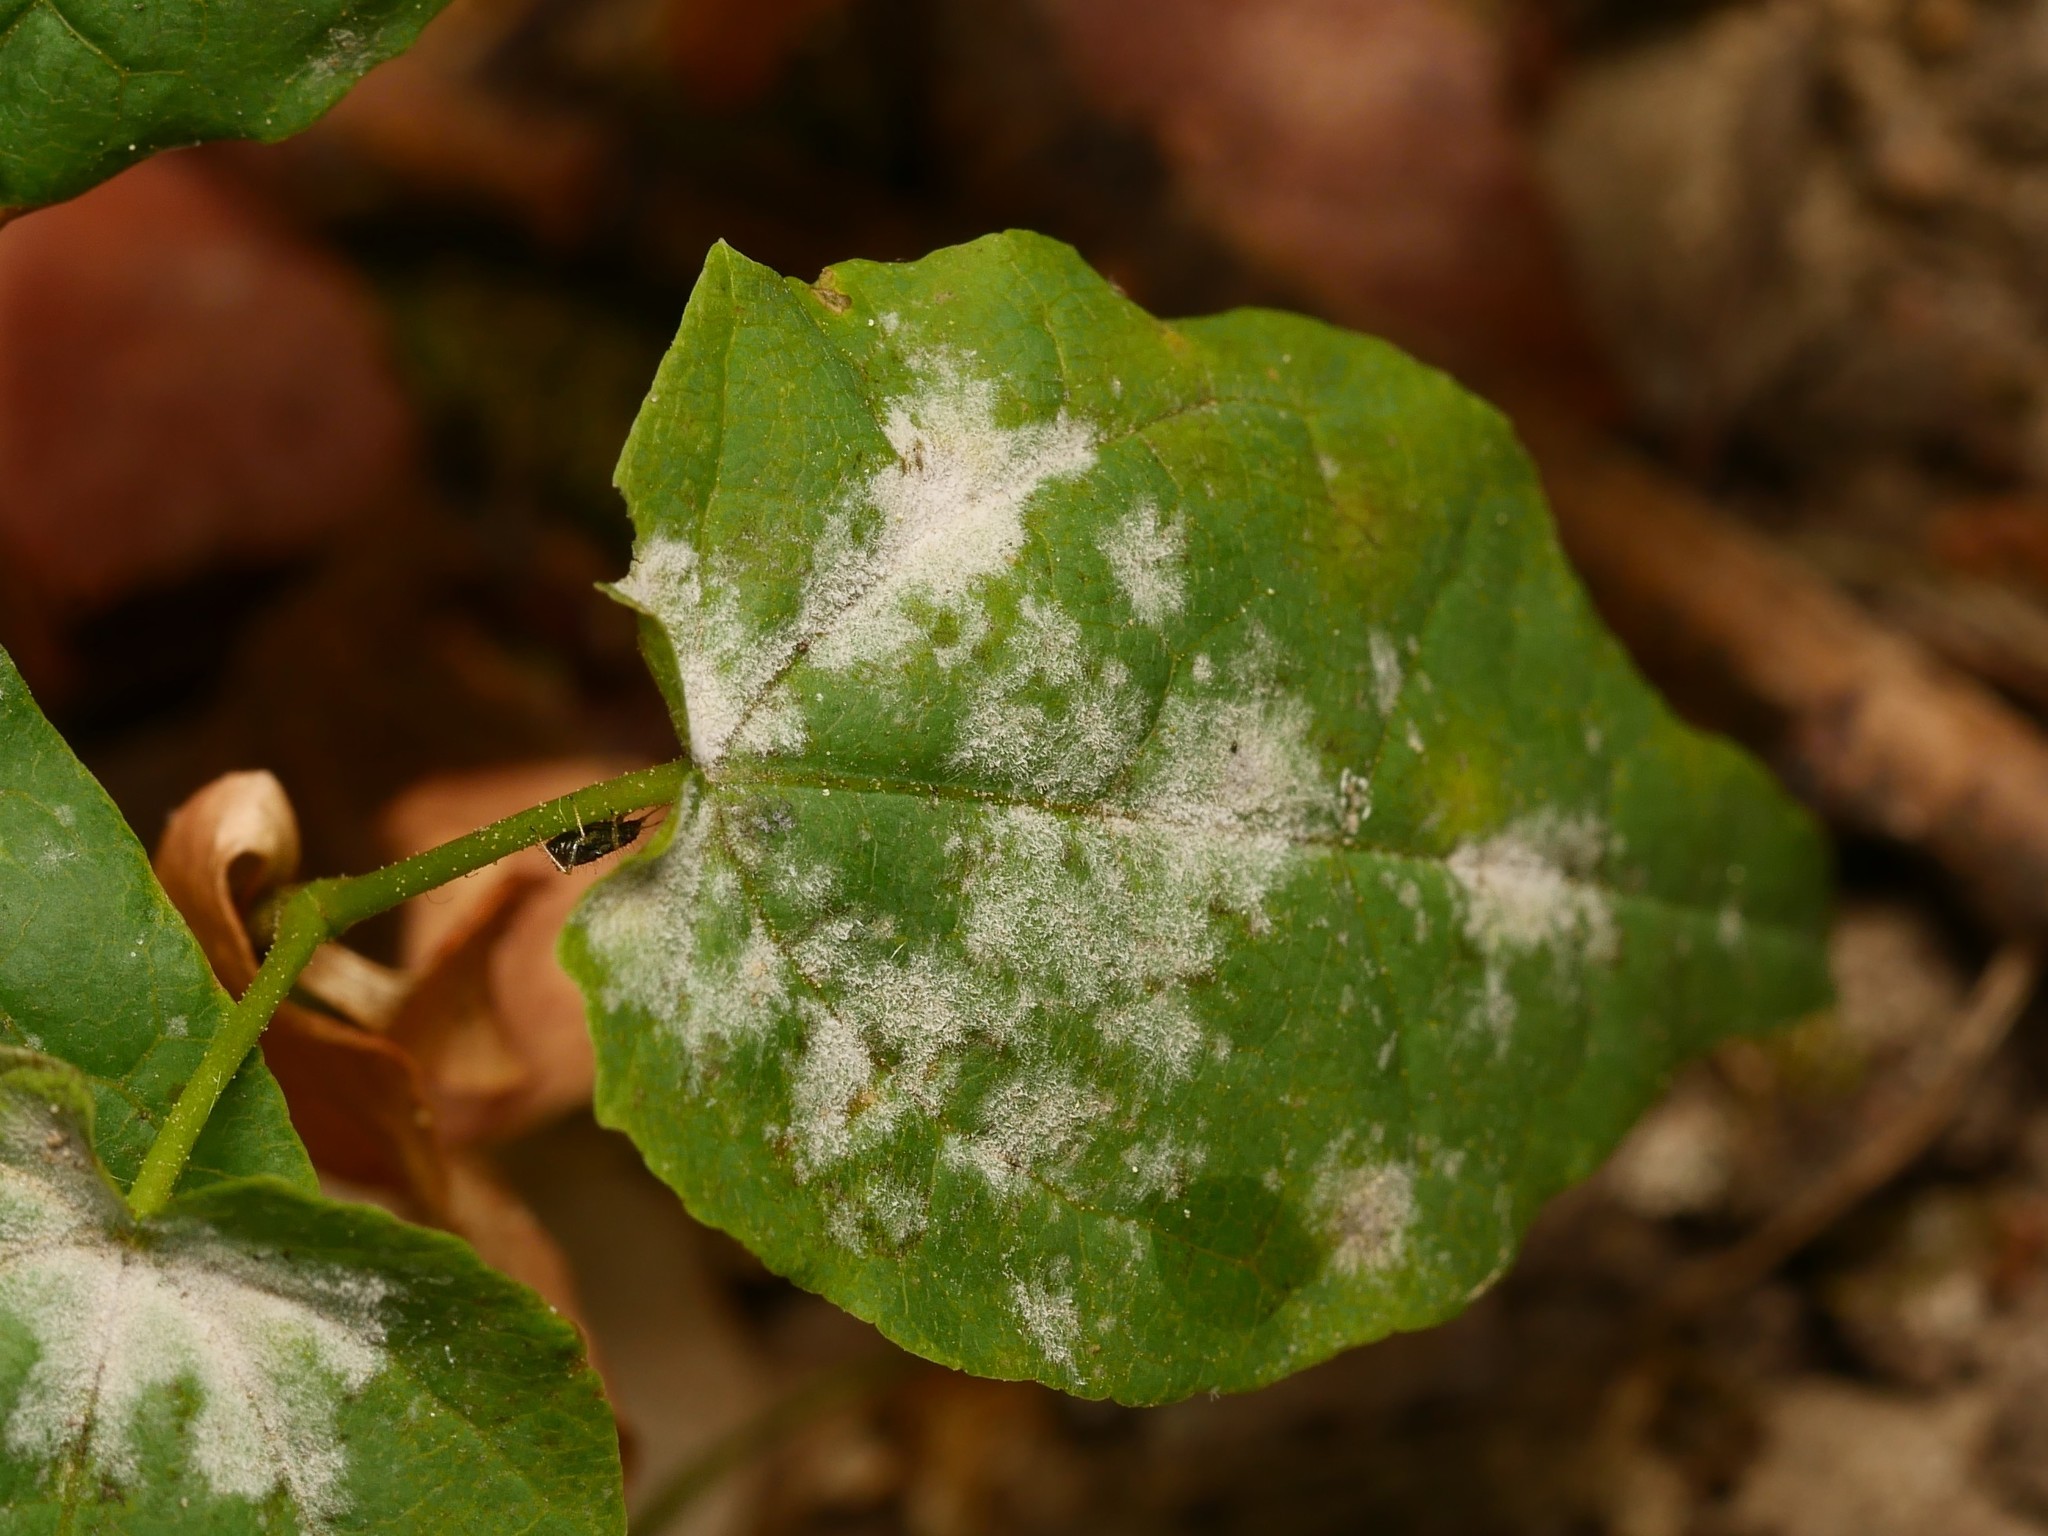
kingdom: Fungi
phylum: Ascomycota
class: Leotiomycetes
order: Helotiales
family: Erysiphaceae
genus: Sawadaea
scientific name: Sawadaea tulasnei
